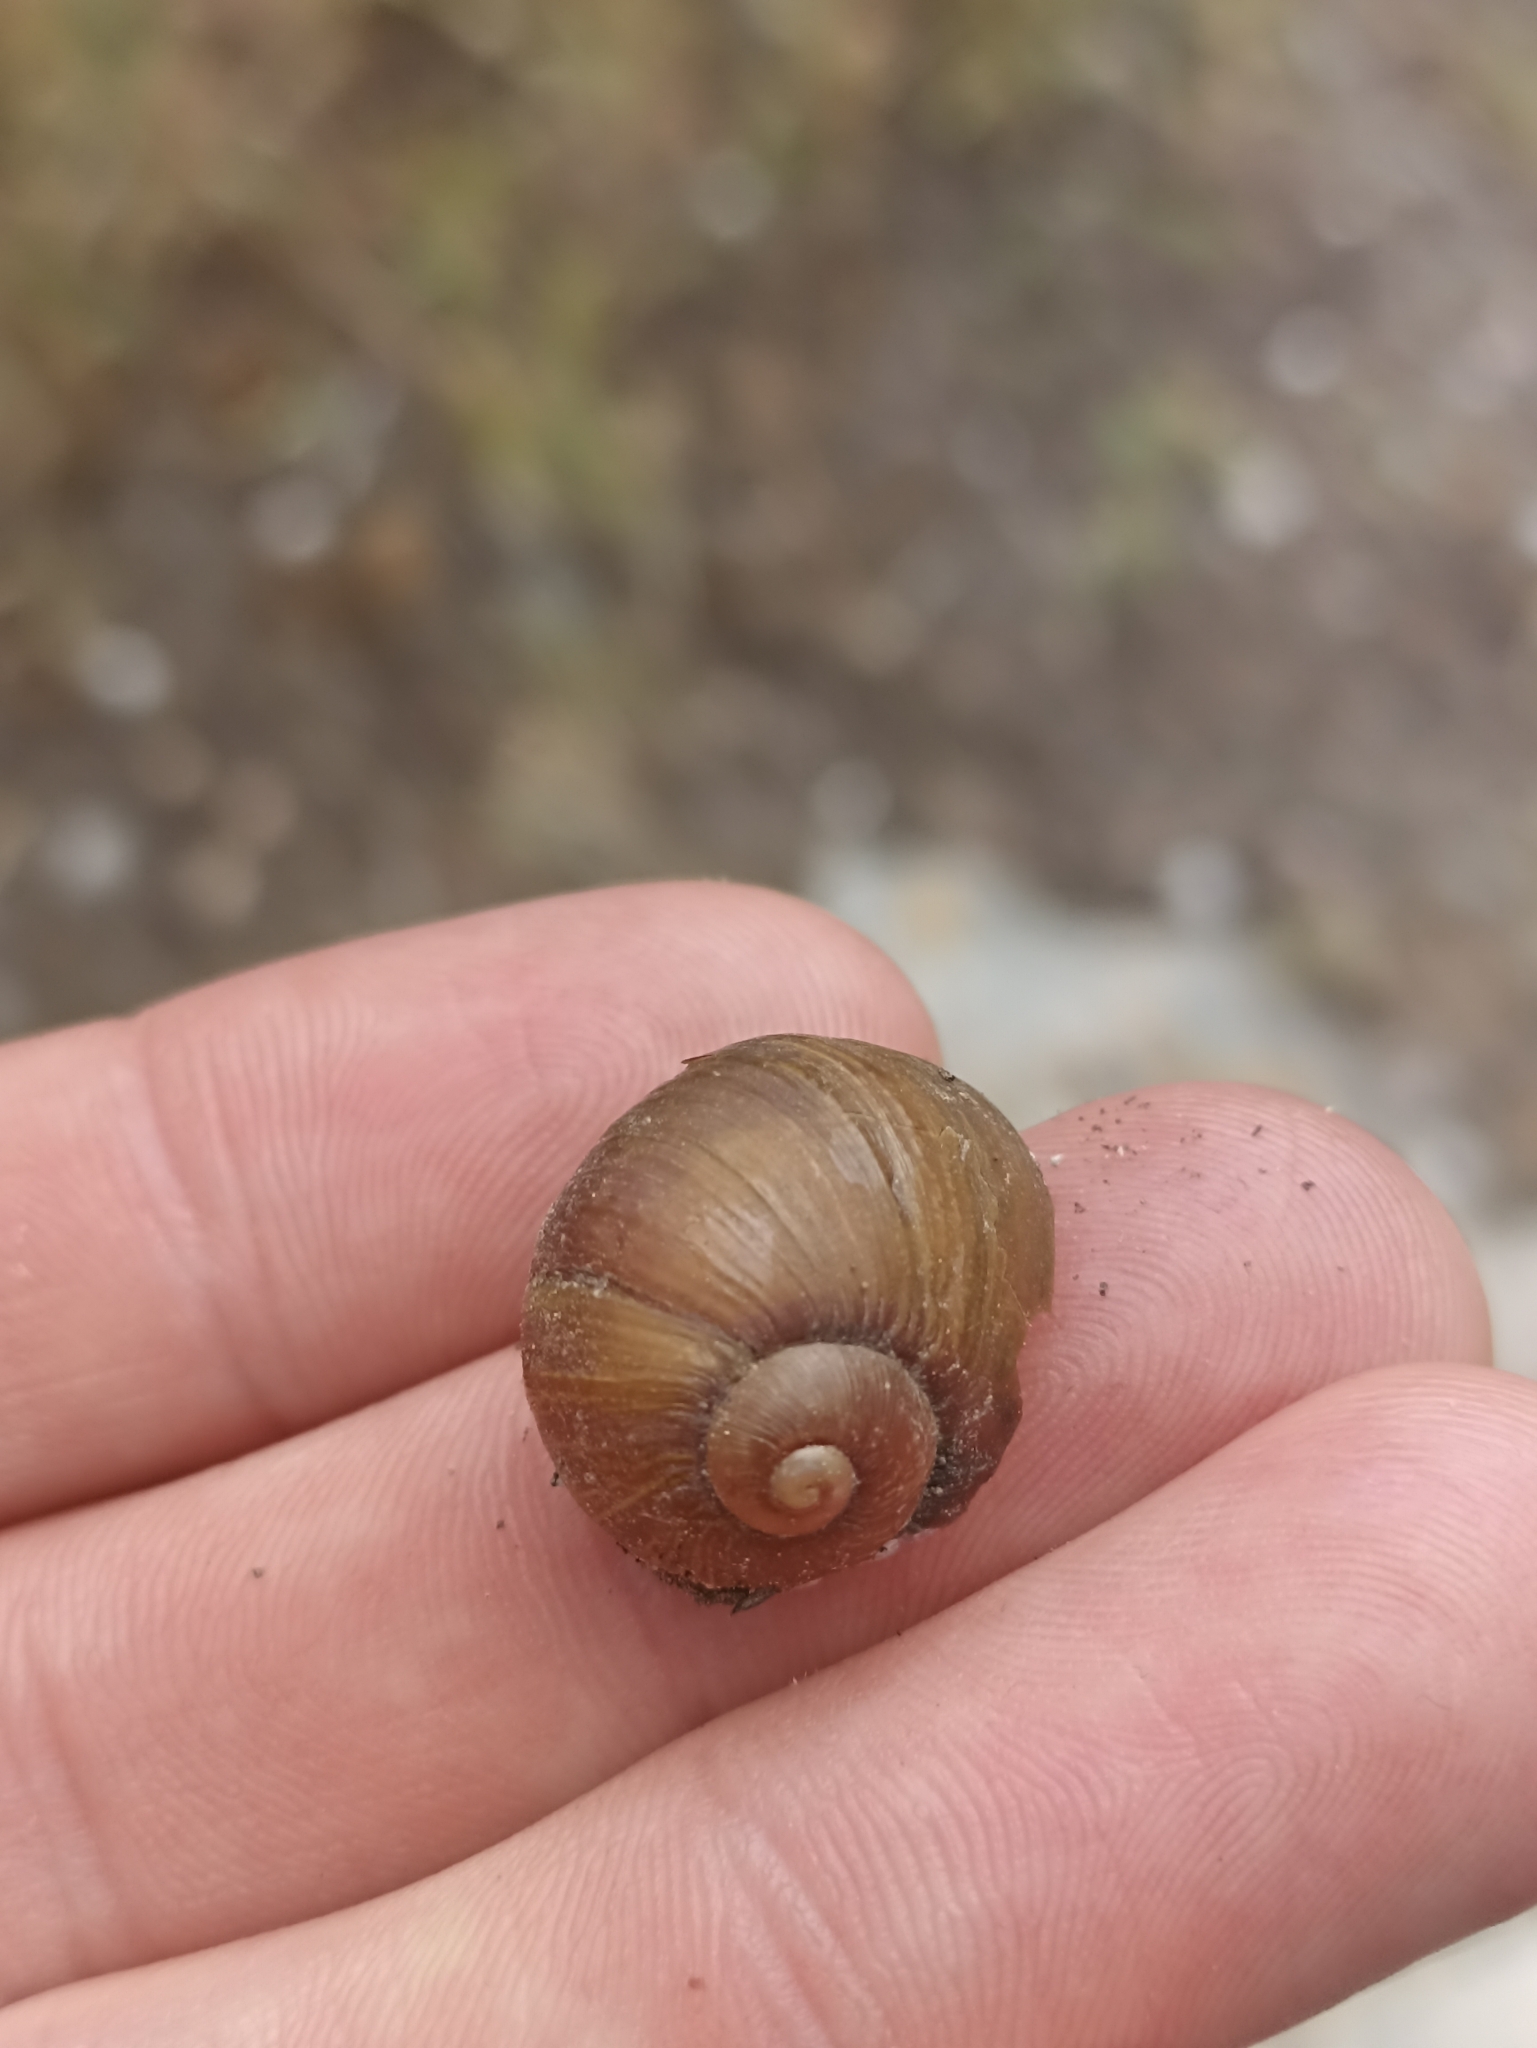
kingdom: Animalia
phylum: Mollusca
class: Gastropoda
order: Stylommatophora
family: Helicidae
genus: Cantareus
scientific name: Cantareus apertus
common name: Green gardensnail
